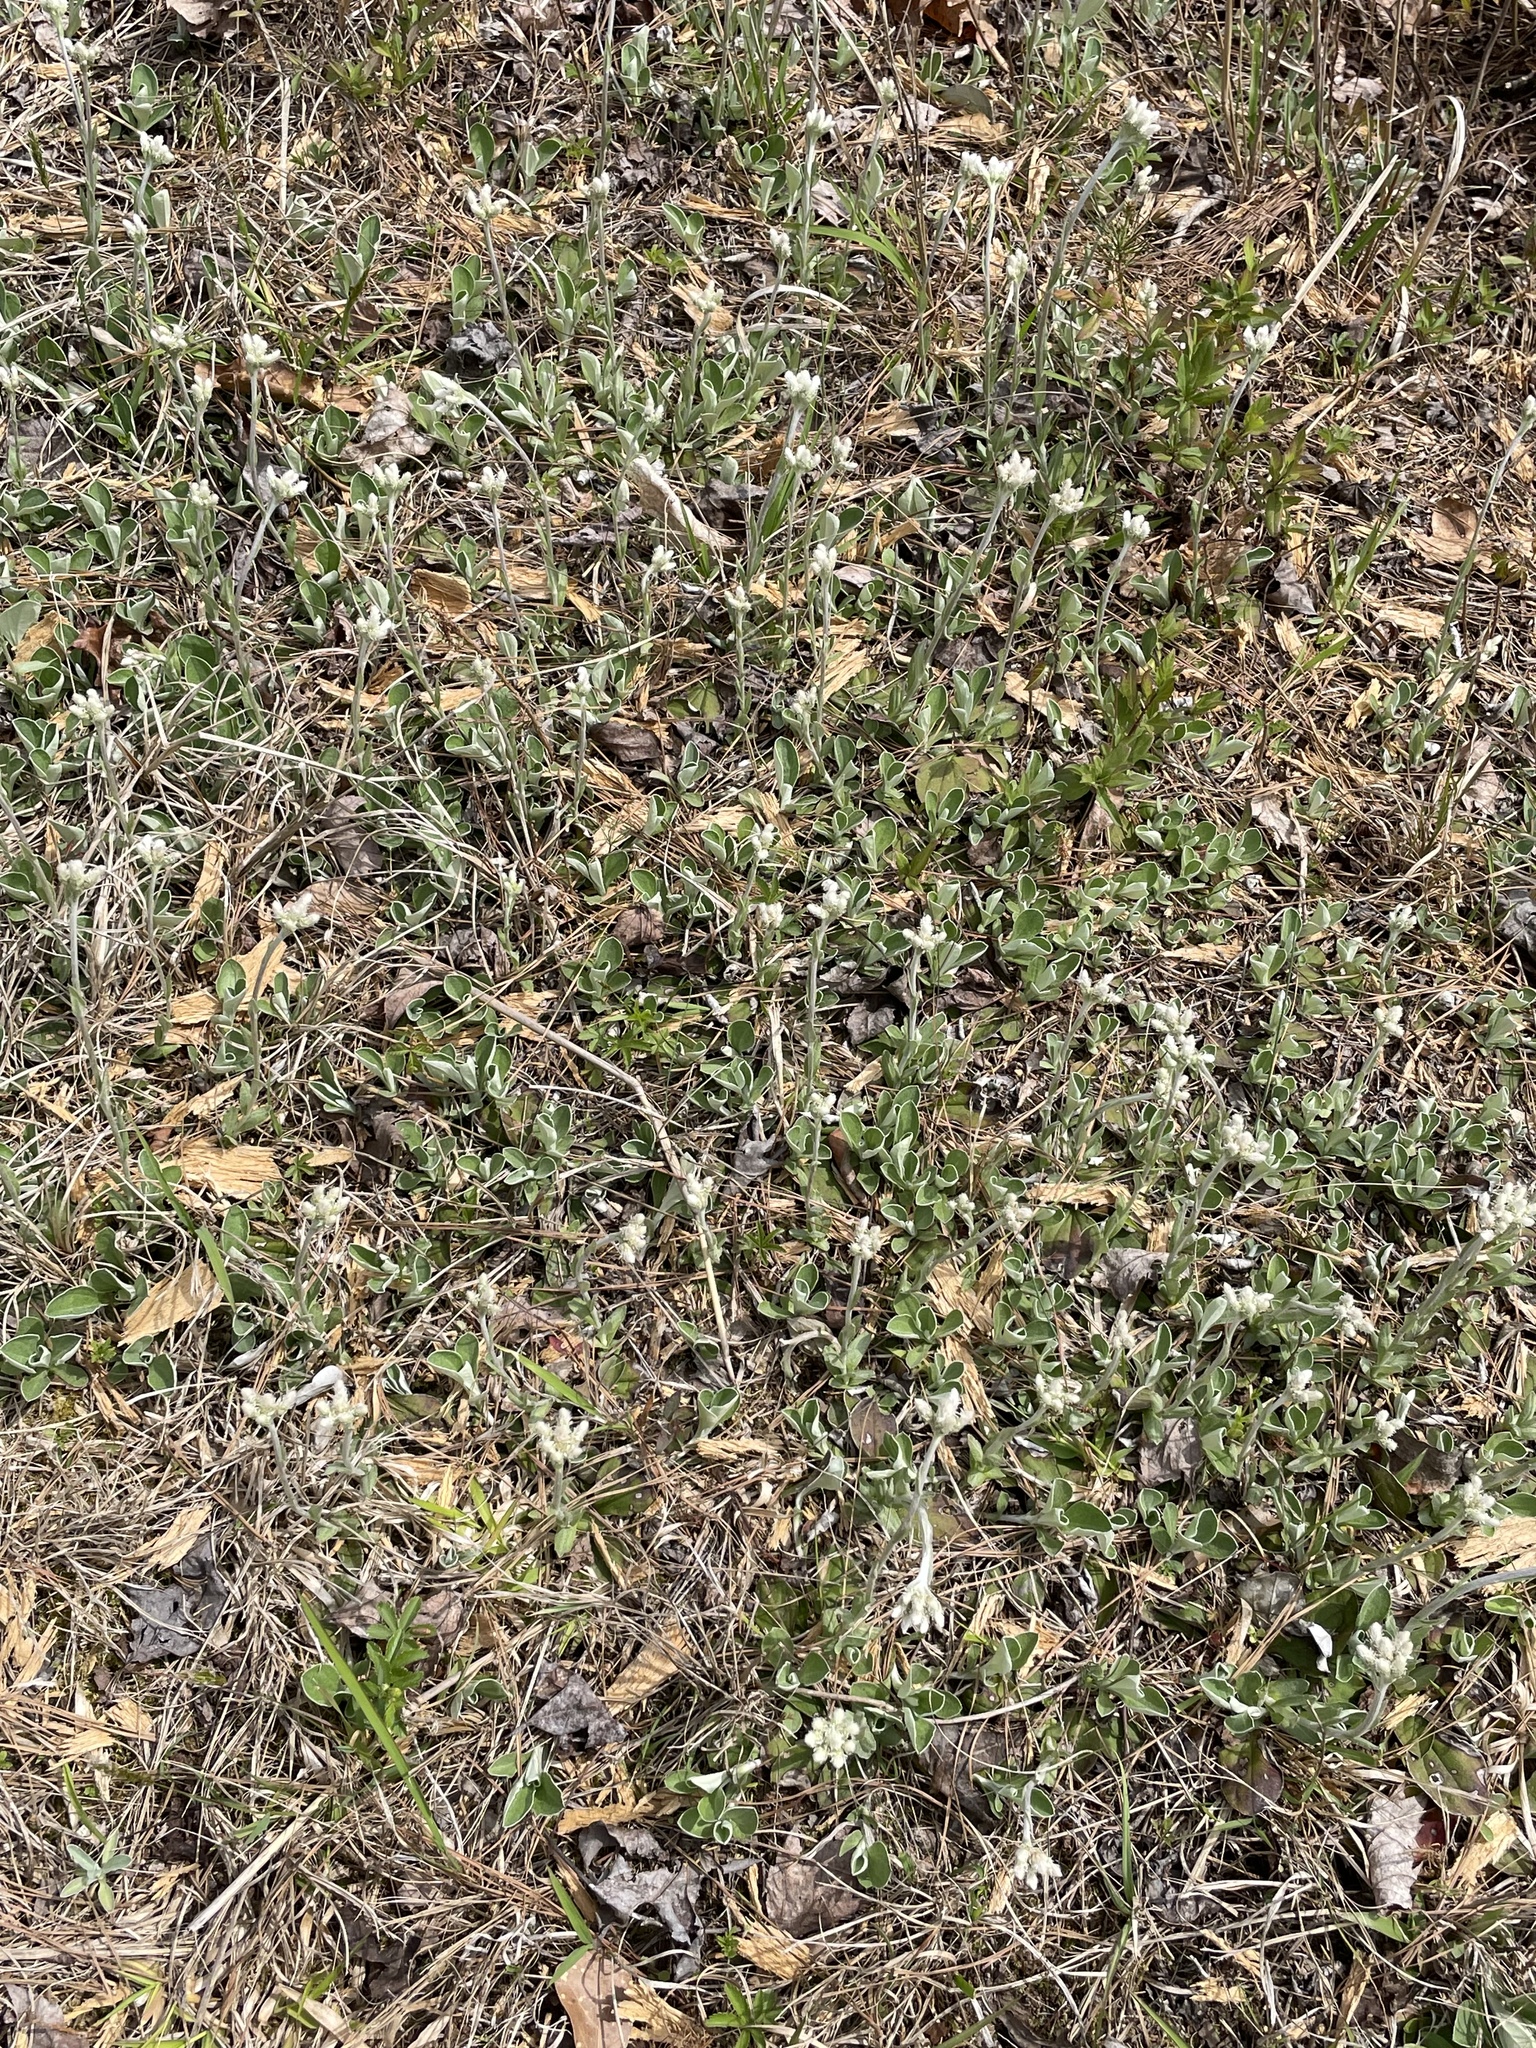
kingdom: Plantae
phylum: Tracheophyta
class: Magnoliopsida
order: Asterales
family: Asteraceae
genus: Antennaria
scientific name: Antennaria parlinii
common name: Parlin's pussytoes
